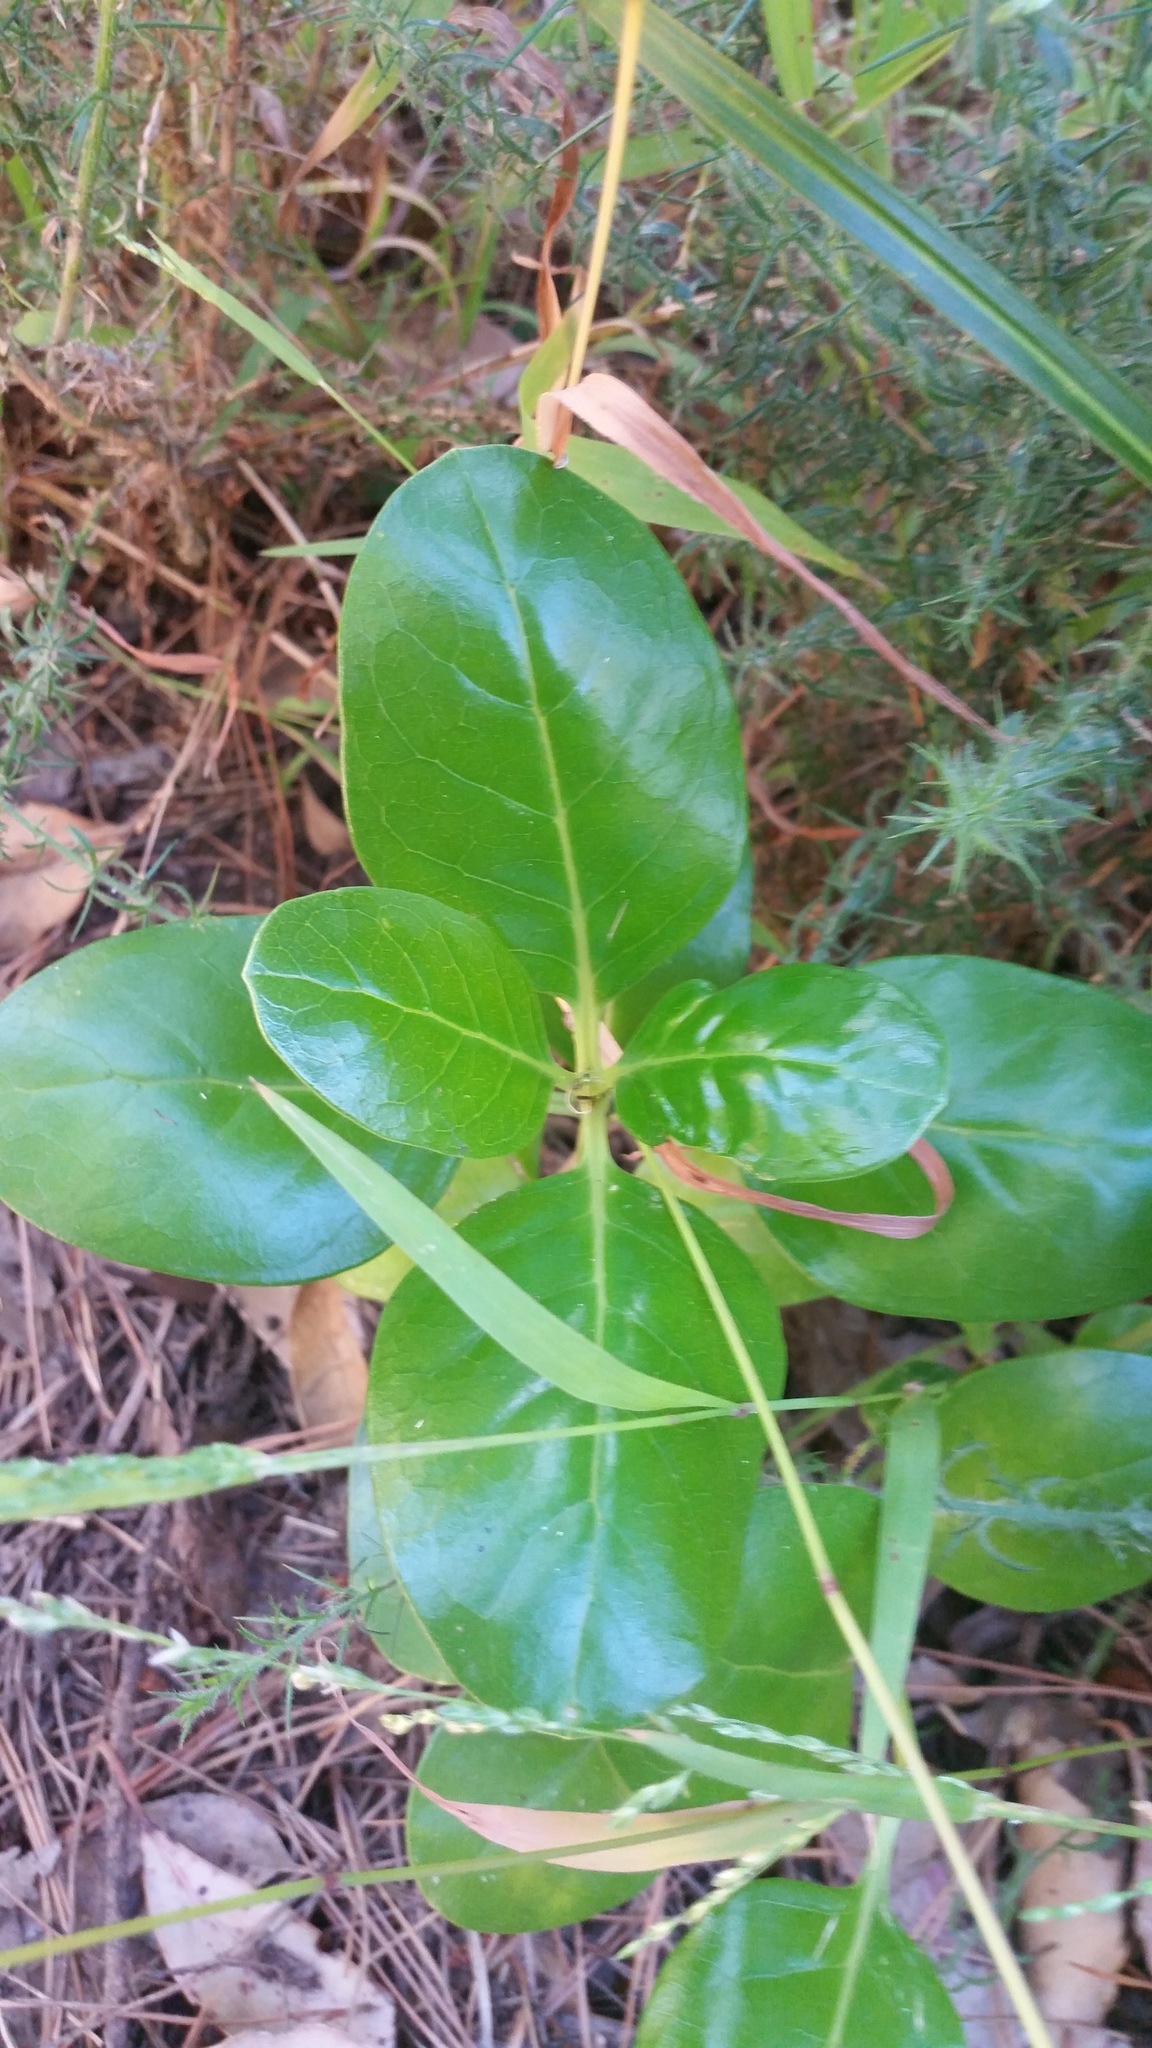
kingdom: Plantae
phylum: Tracheophyta
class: Magnoliopsida
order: Gentianales
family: Rubiaceae
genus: Coprosma
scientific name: Coprosma repens
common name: Tree bedstraw
